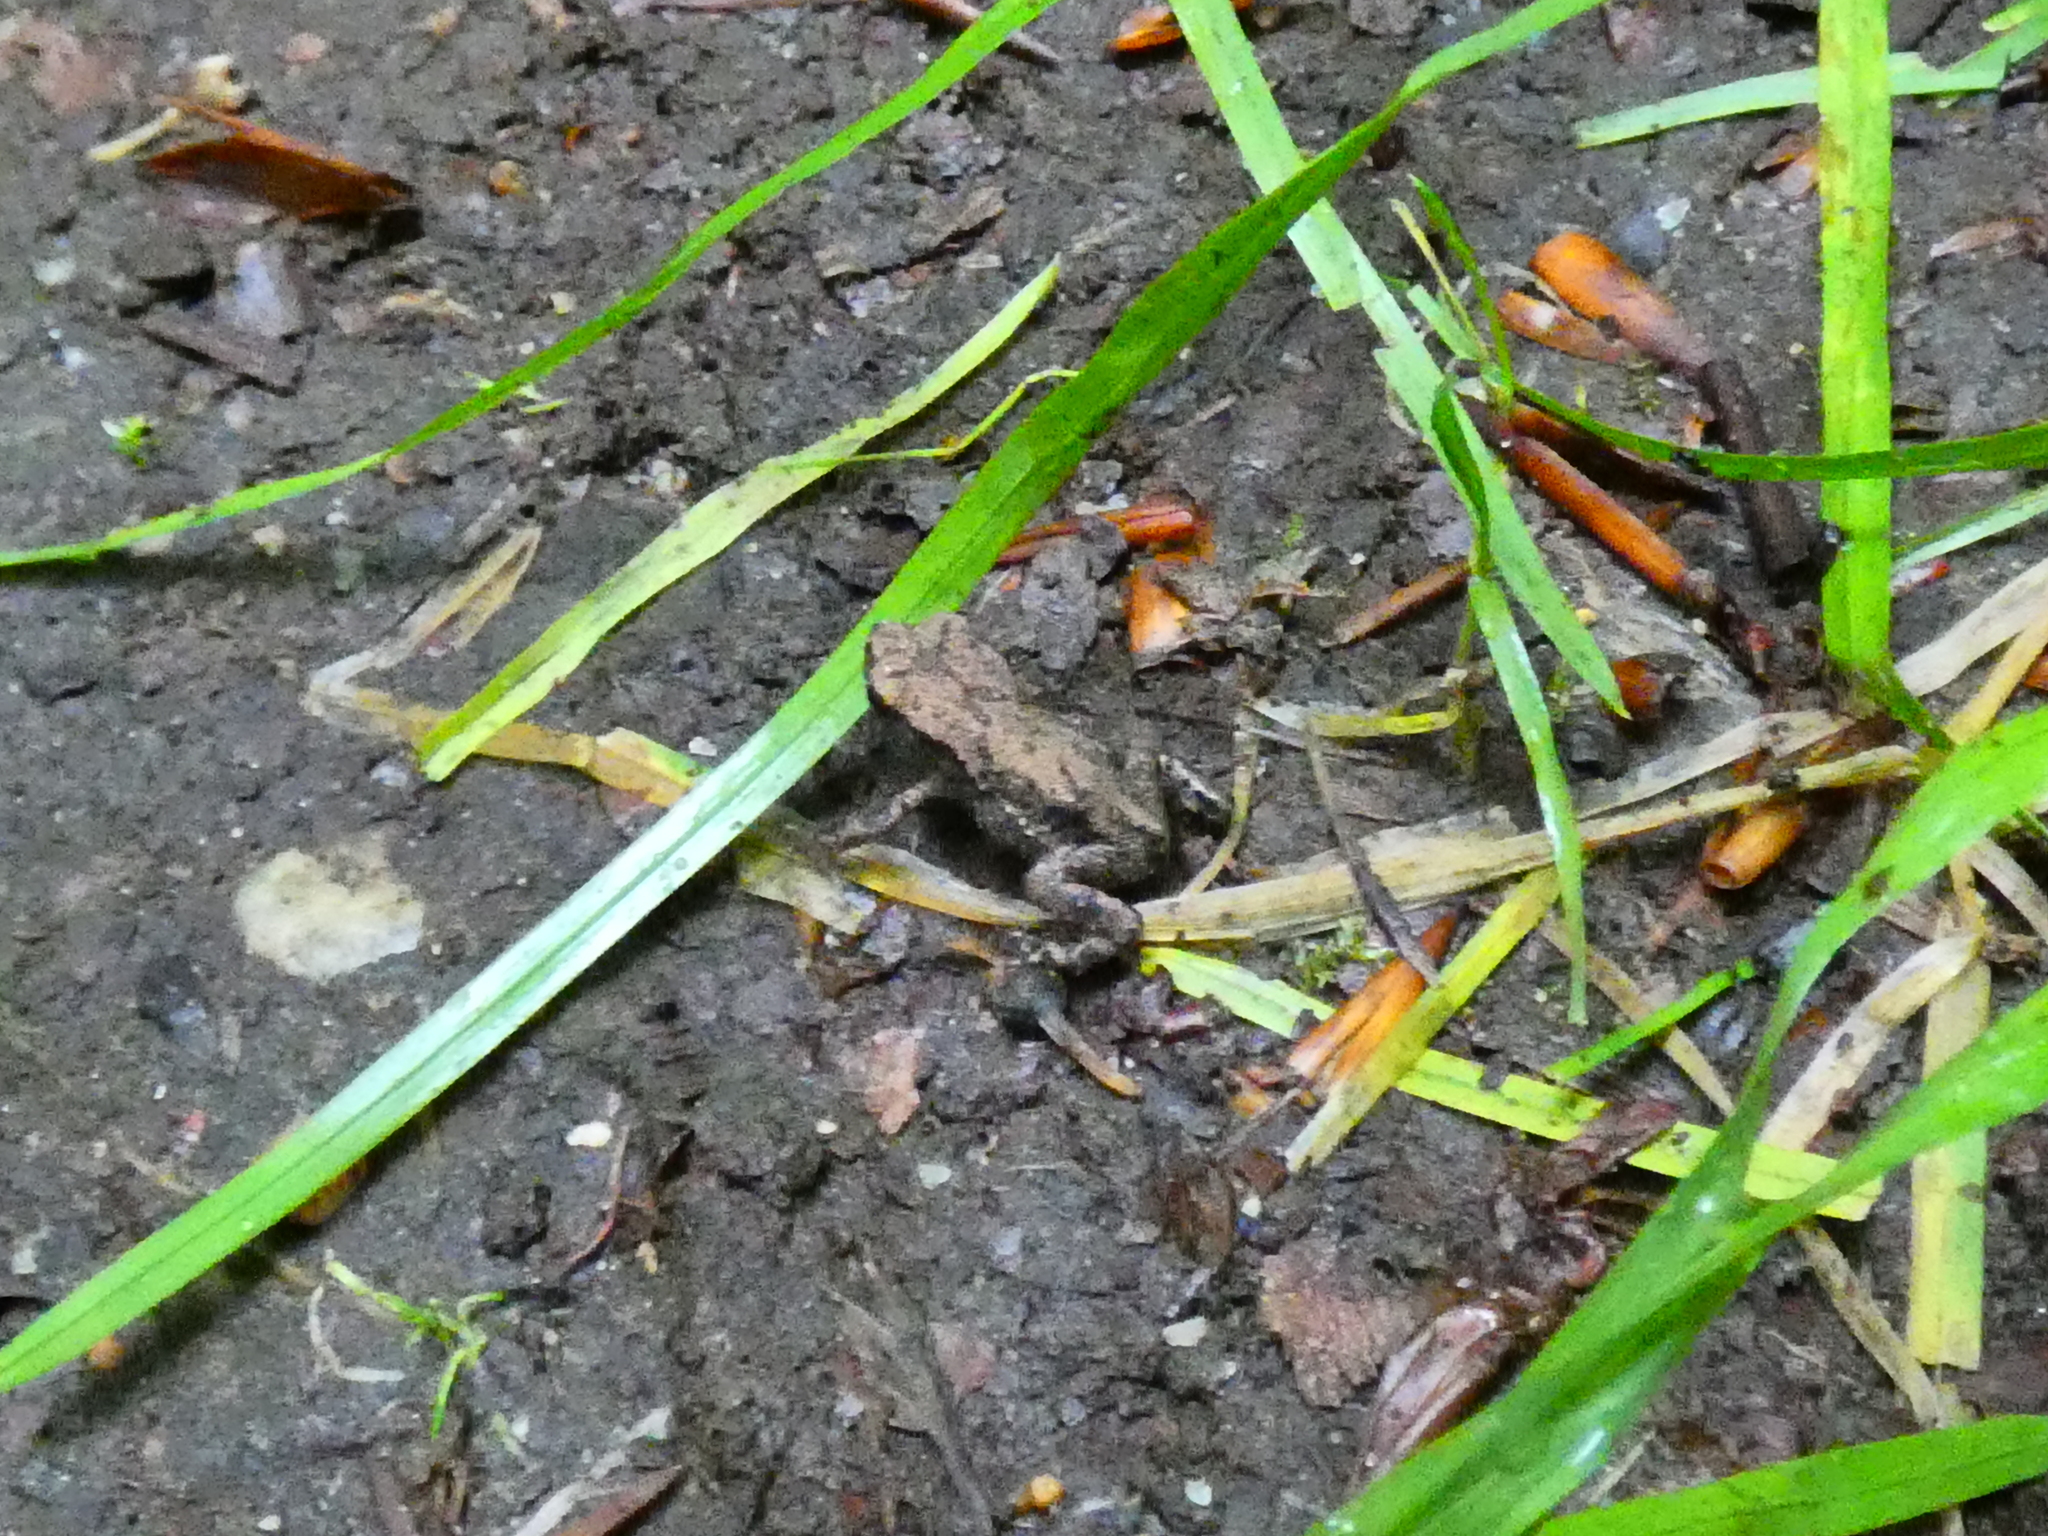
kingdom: Animalia
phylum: Chordata
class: Amphibia
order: Anura
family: Bufonidae
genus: Bufo
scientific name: Bufo bufo
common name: Common toad
